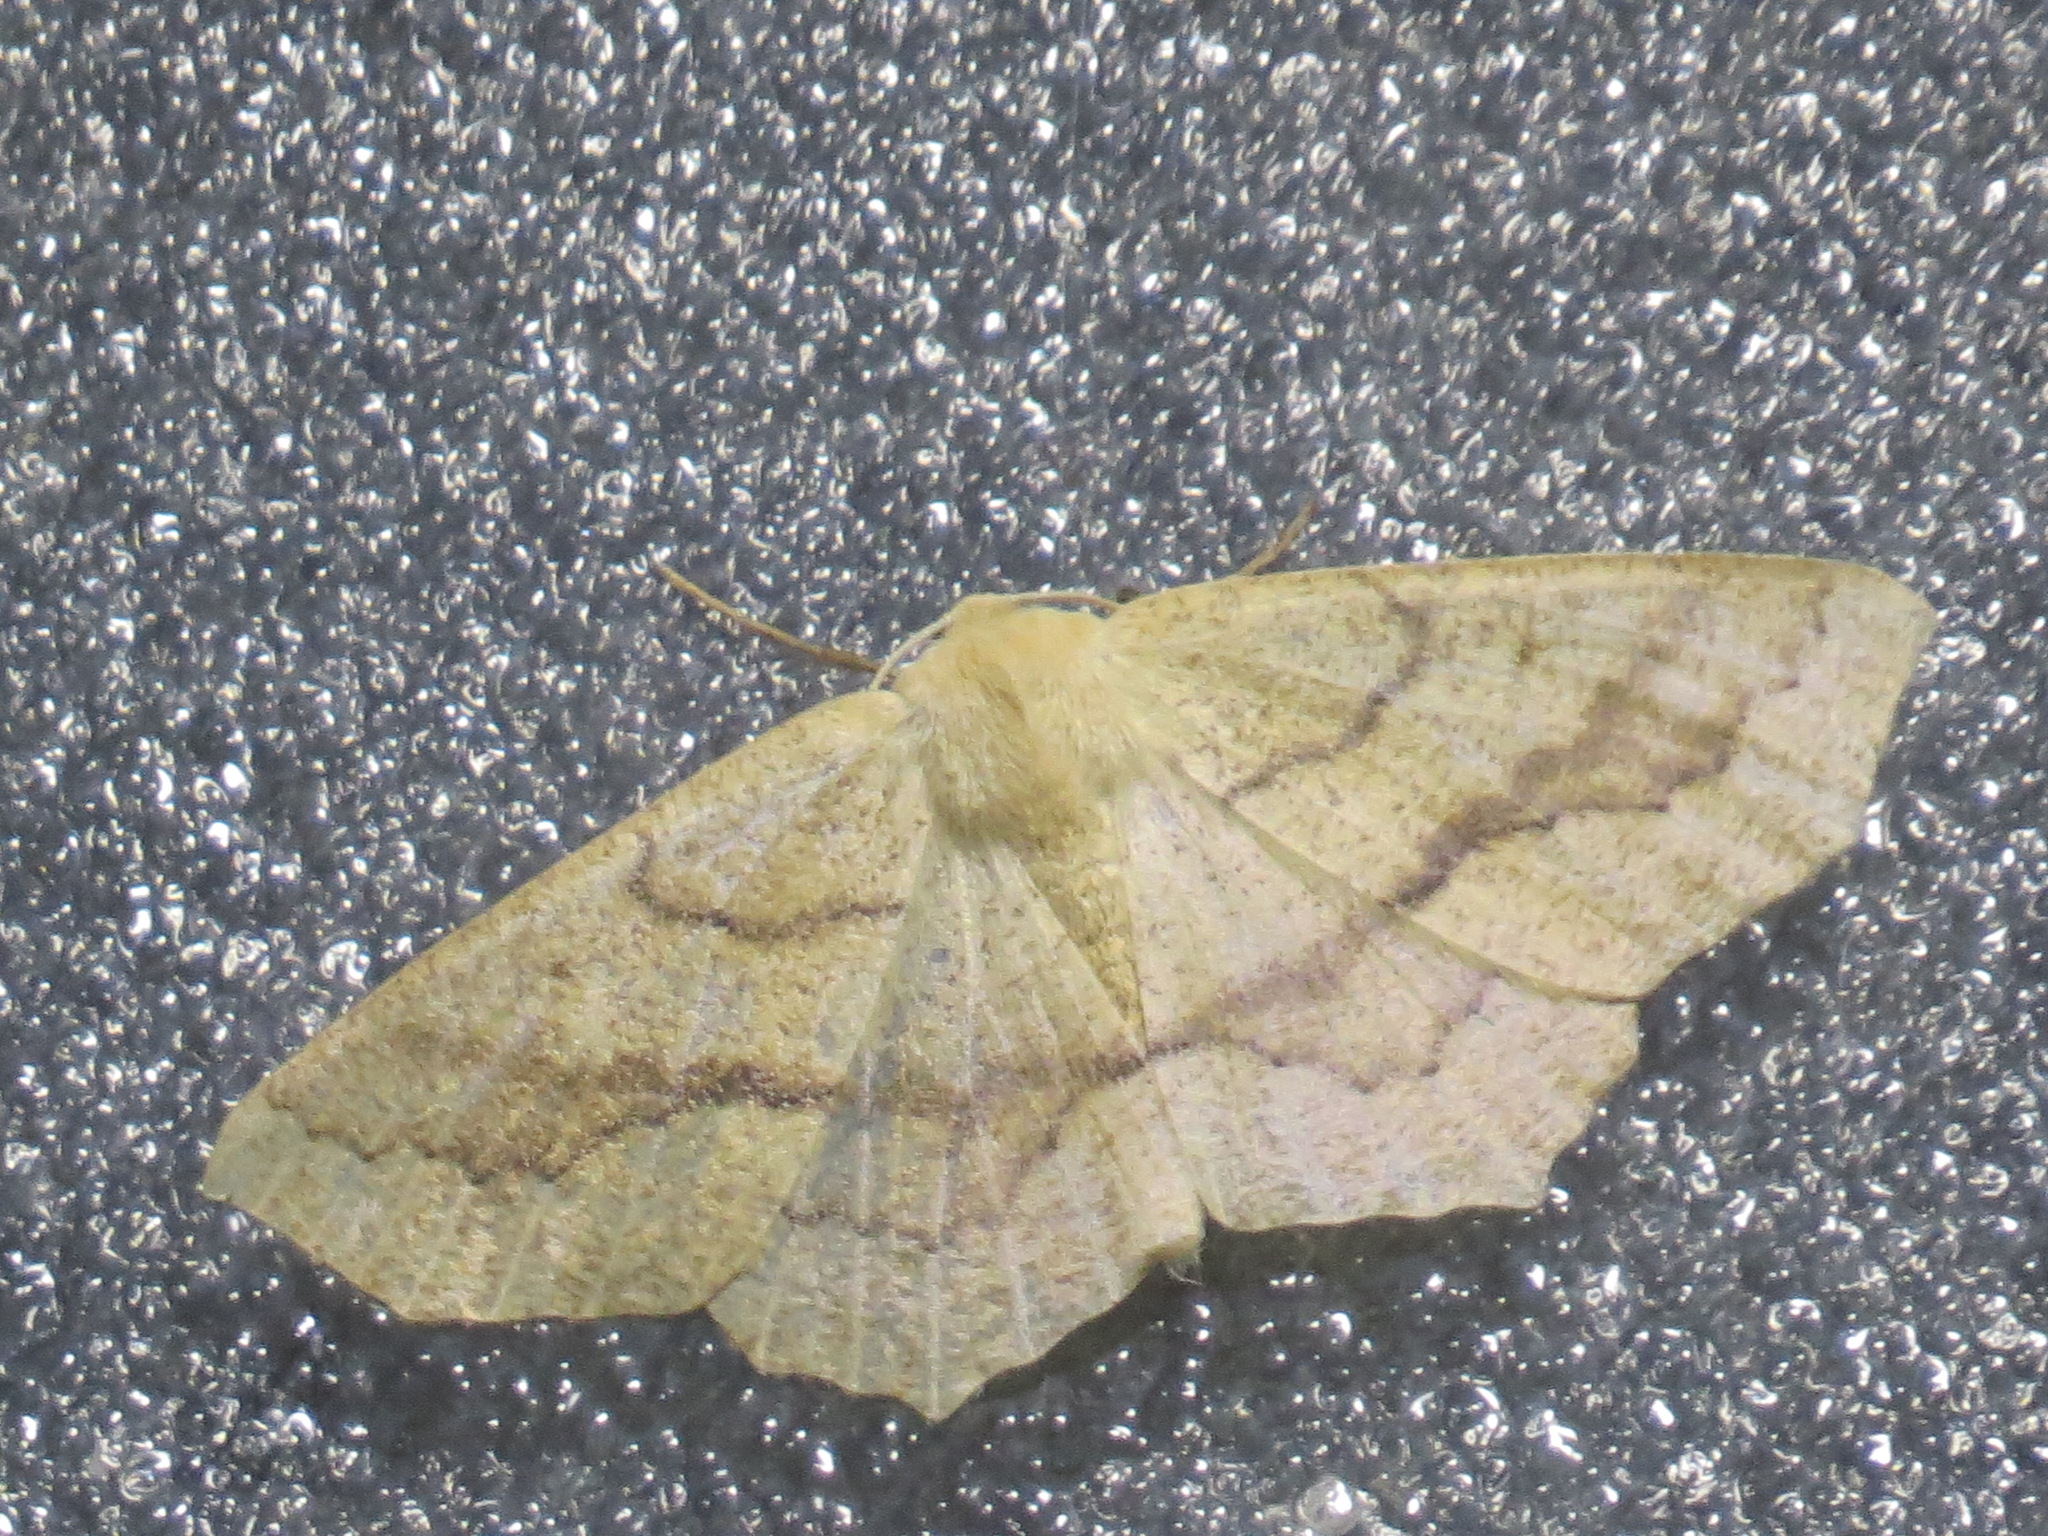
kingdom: Animalia
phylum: Arthropoda
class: Insecta
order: Lepidoptera
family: Geometridae
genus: Sabulodes
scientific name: Sabulodes aegrotata
